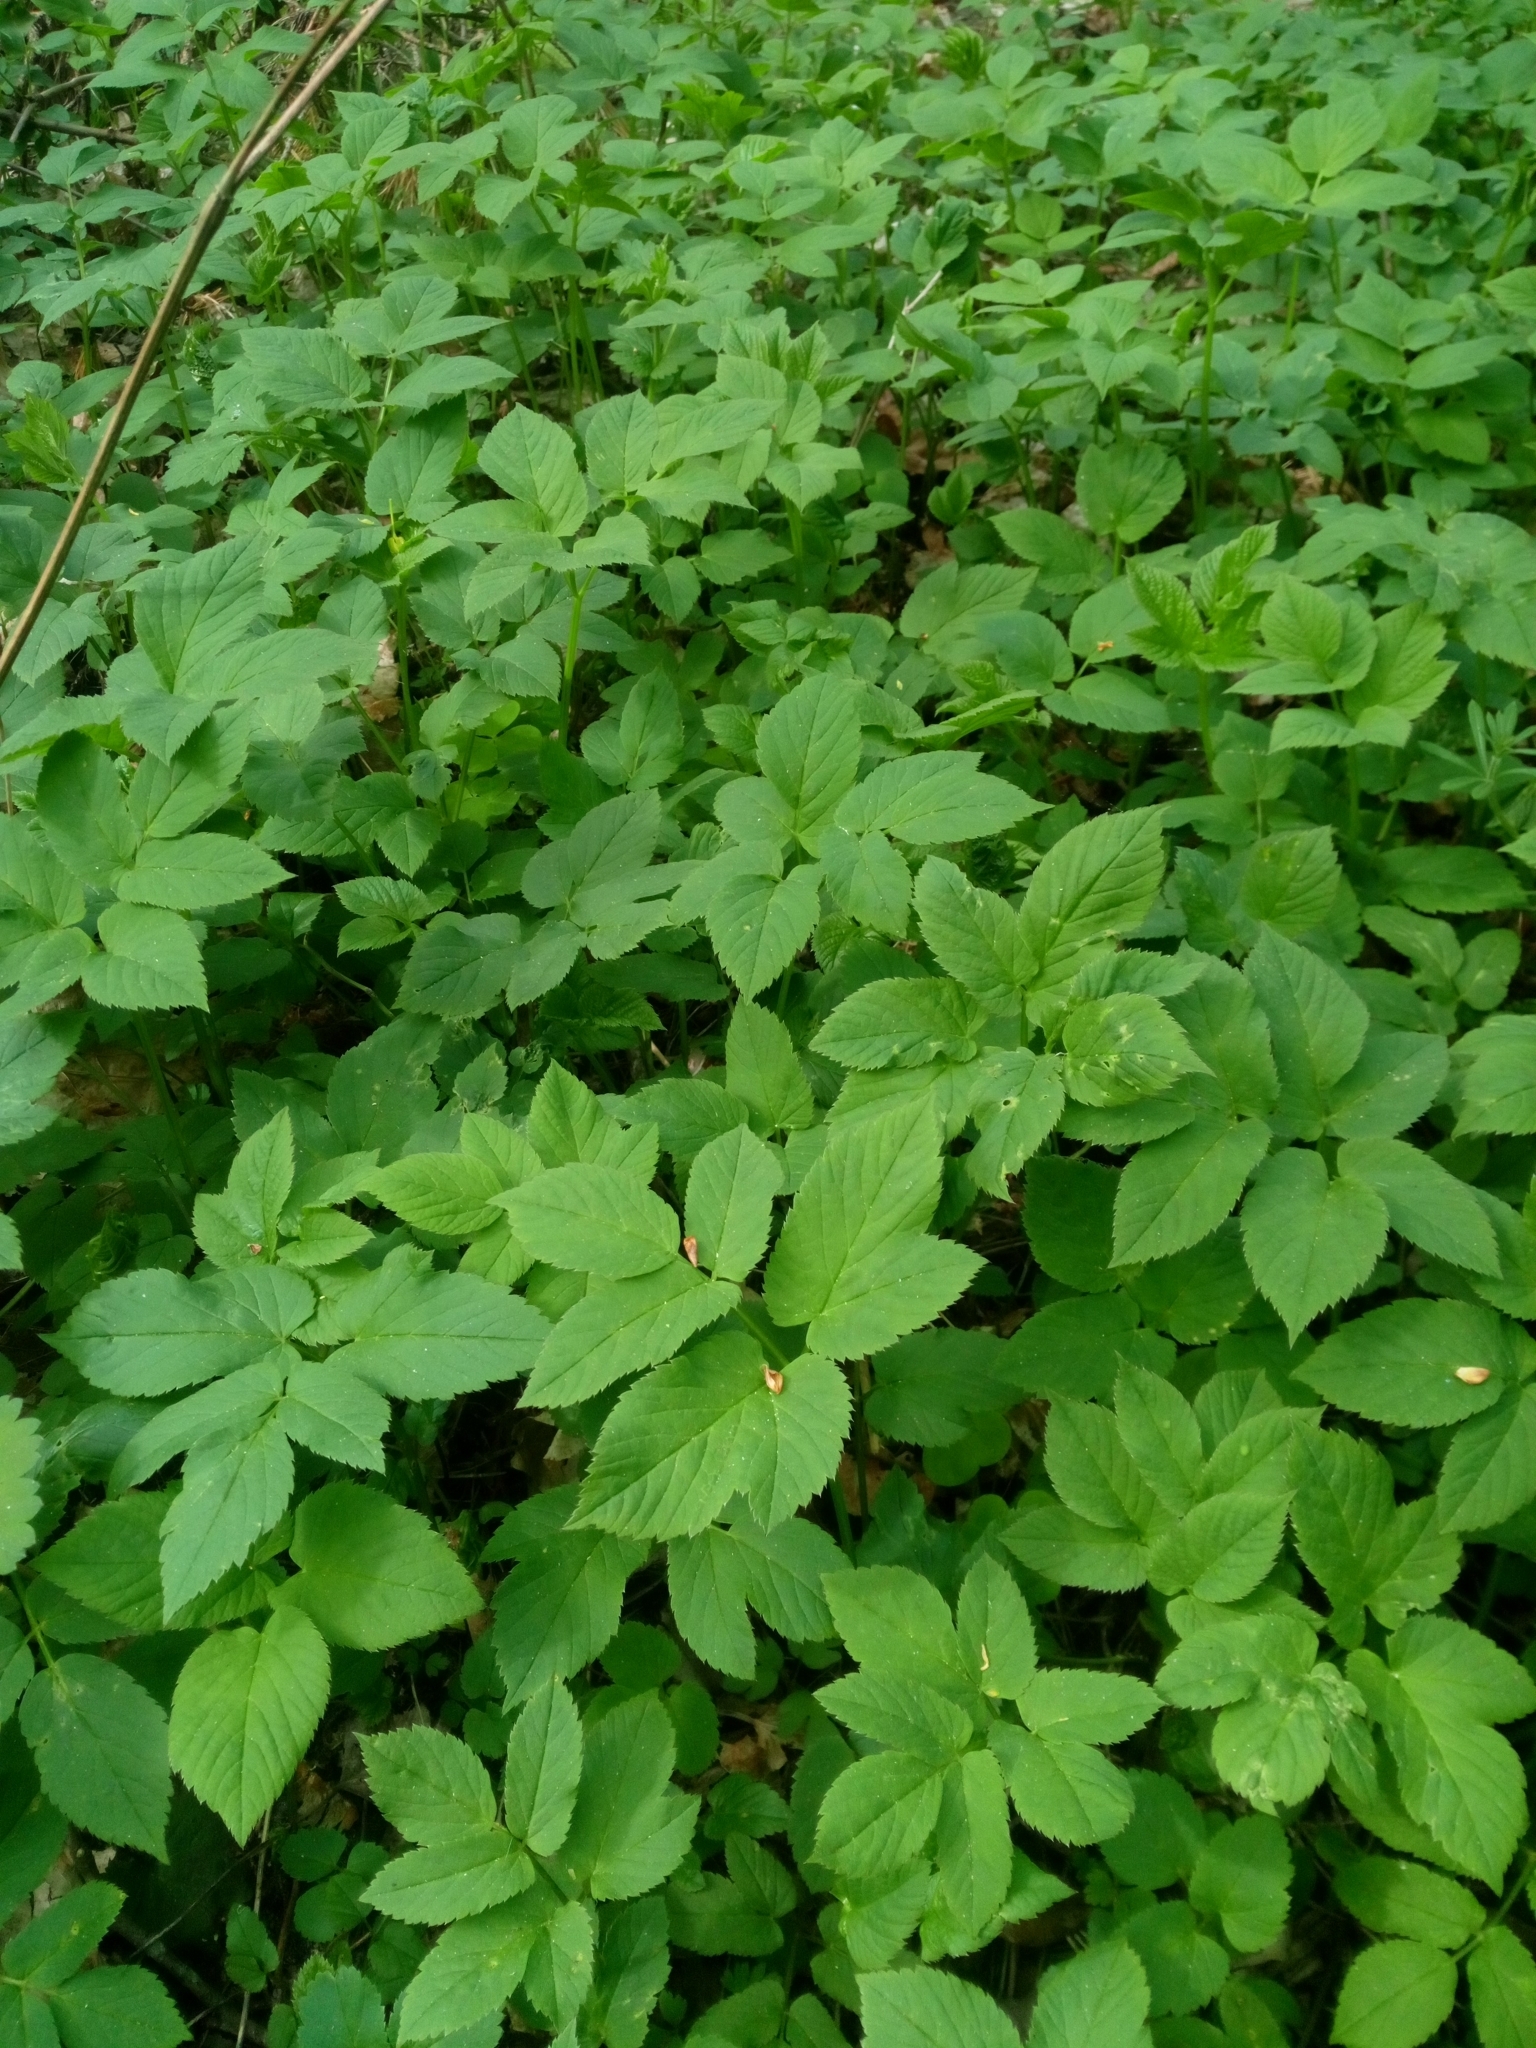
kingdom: Plantae
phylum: Tracheophyta
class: Magnoliopsida
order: Apiales
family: Apiaceae
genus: Aegopodium
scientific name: Aegopodium podagraria
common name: Ground-elder
